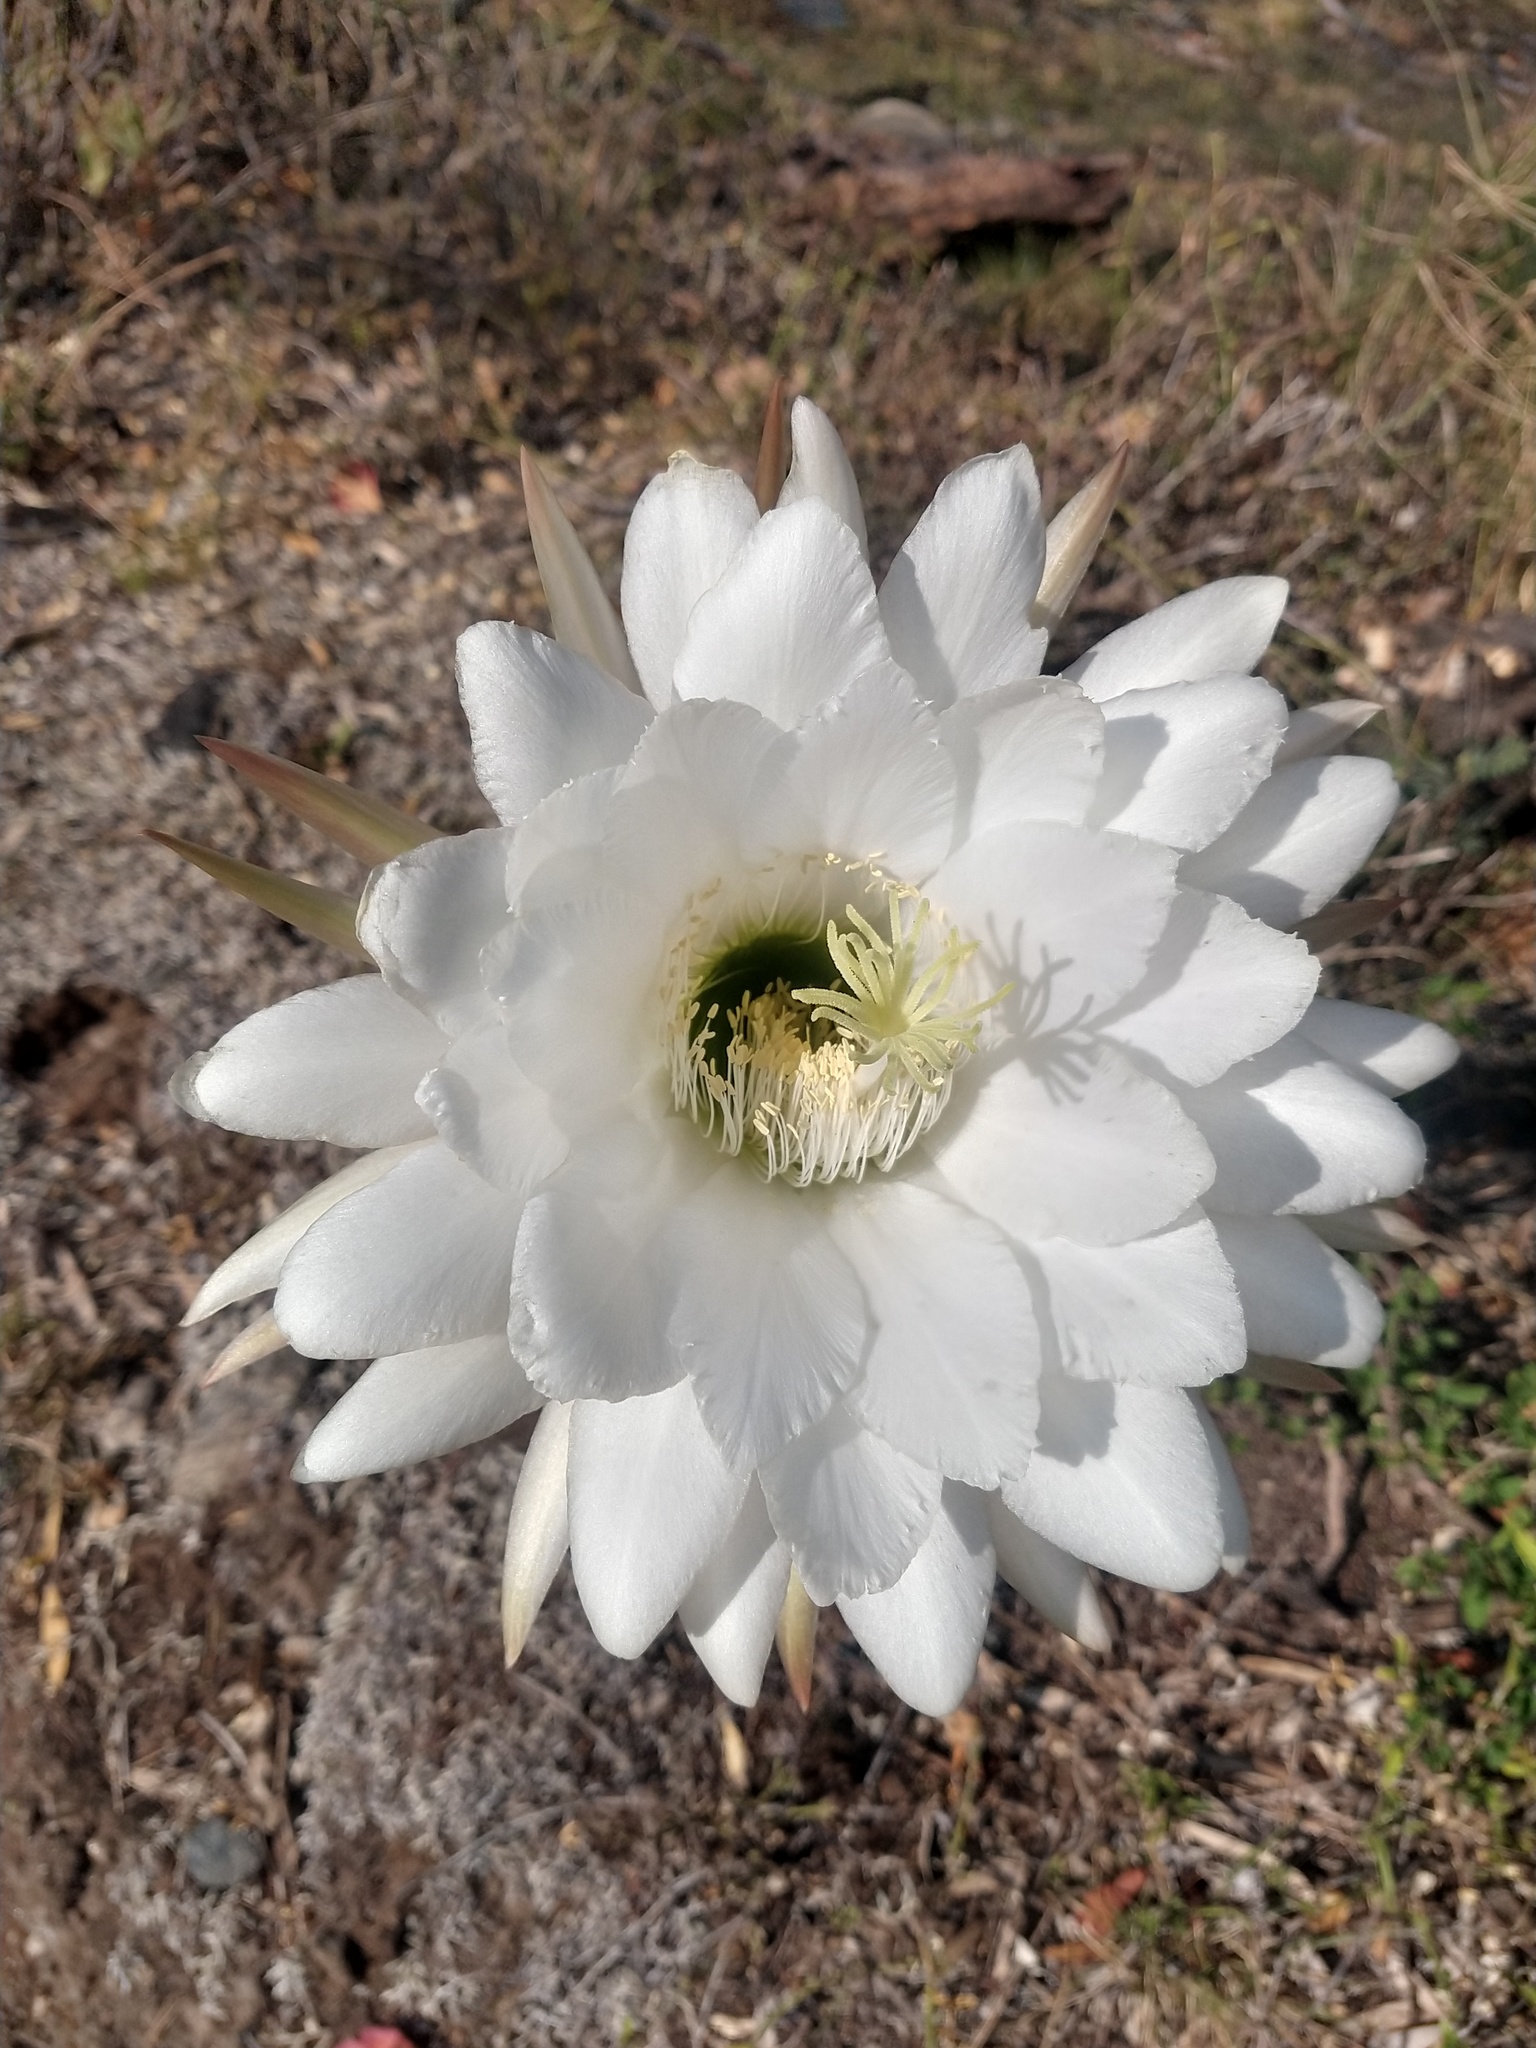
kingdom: Plantae
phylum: Tracheophyta
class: Magnoliopsida
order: Caryophyllales
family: Cactaceae
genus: Soehrensia
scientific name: Soehrensia candicans
